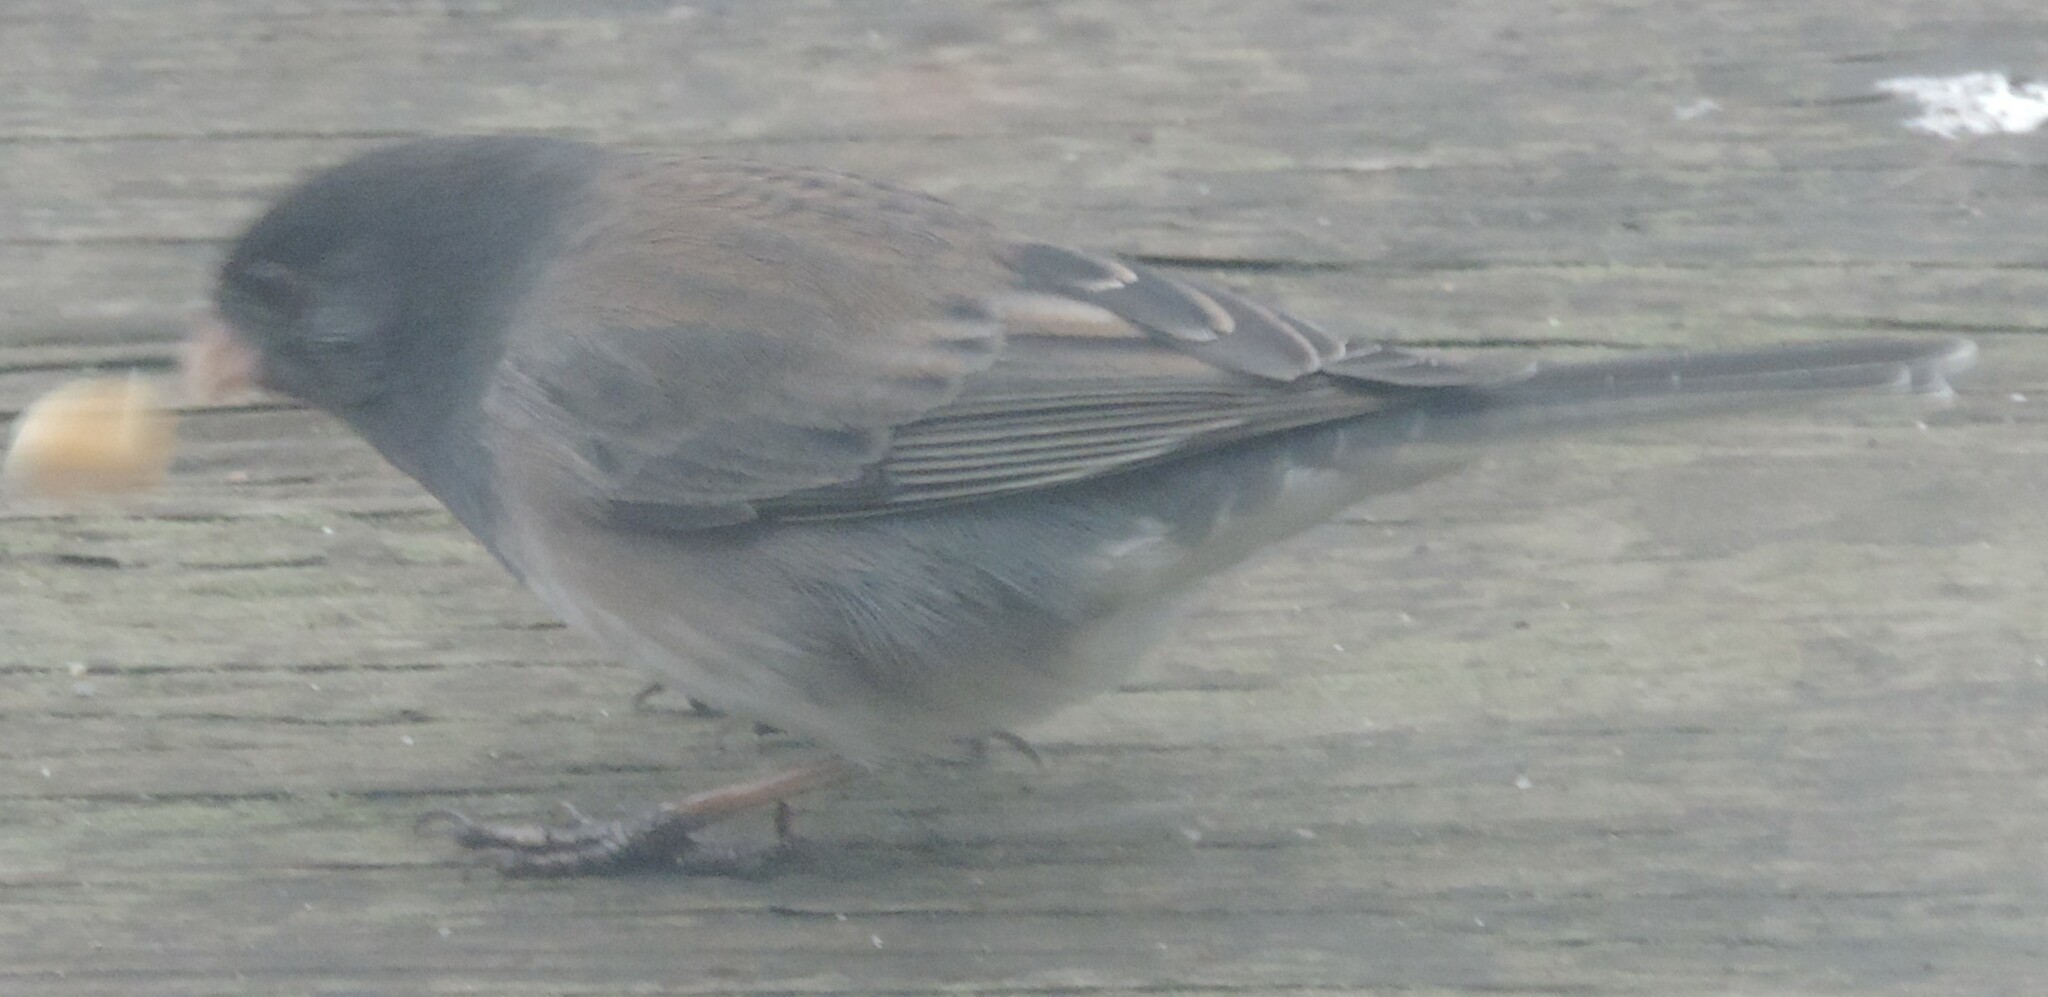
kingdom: Animalia
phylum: Chordata
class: Aves
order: Passeriformes
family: Passerellidae
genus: Junco
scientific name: Junco hyemalis
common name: Dark-eyed junco
